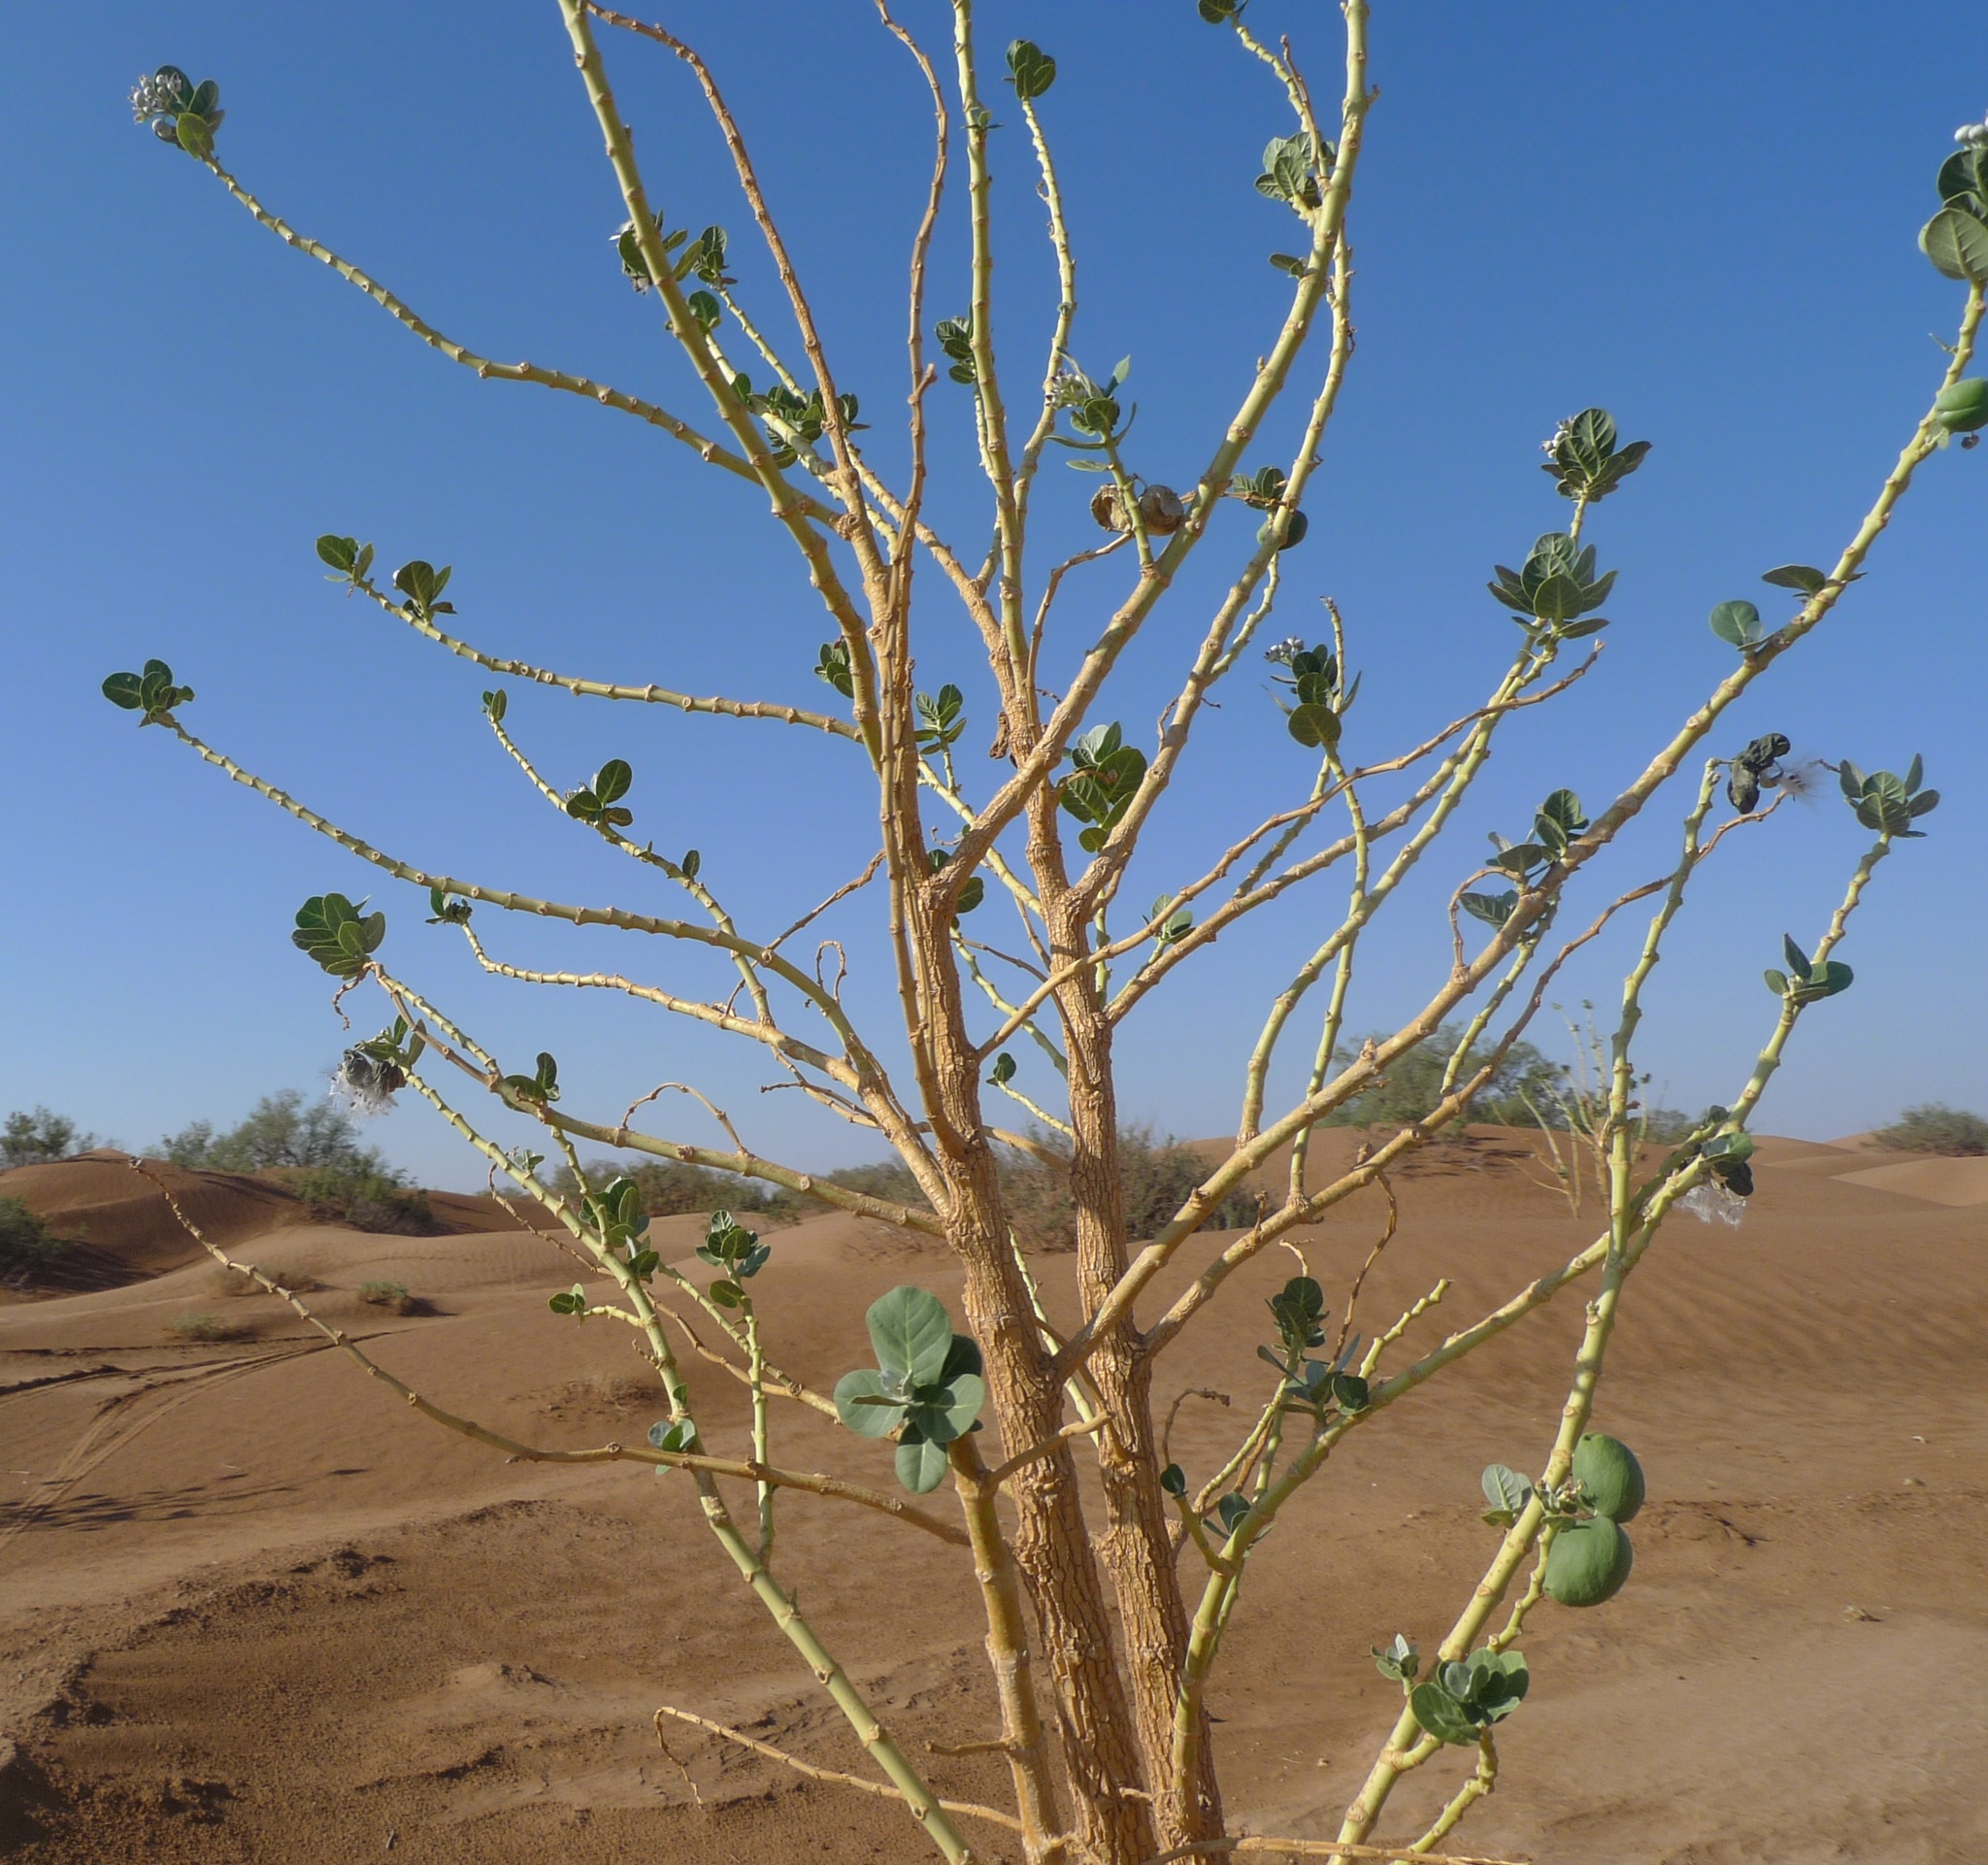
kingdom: Plantae
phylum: Tracheophyta
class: Magnoliopsida
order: Gentianales
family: Apocynaceae
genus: Calotropis
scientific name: Calotropis procera
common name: Roostertree
